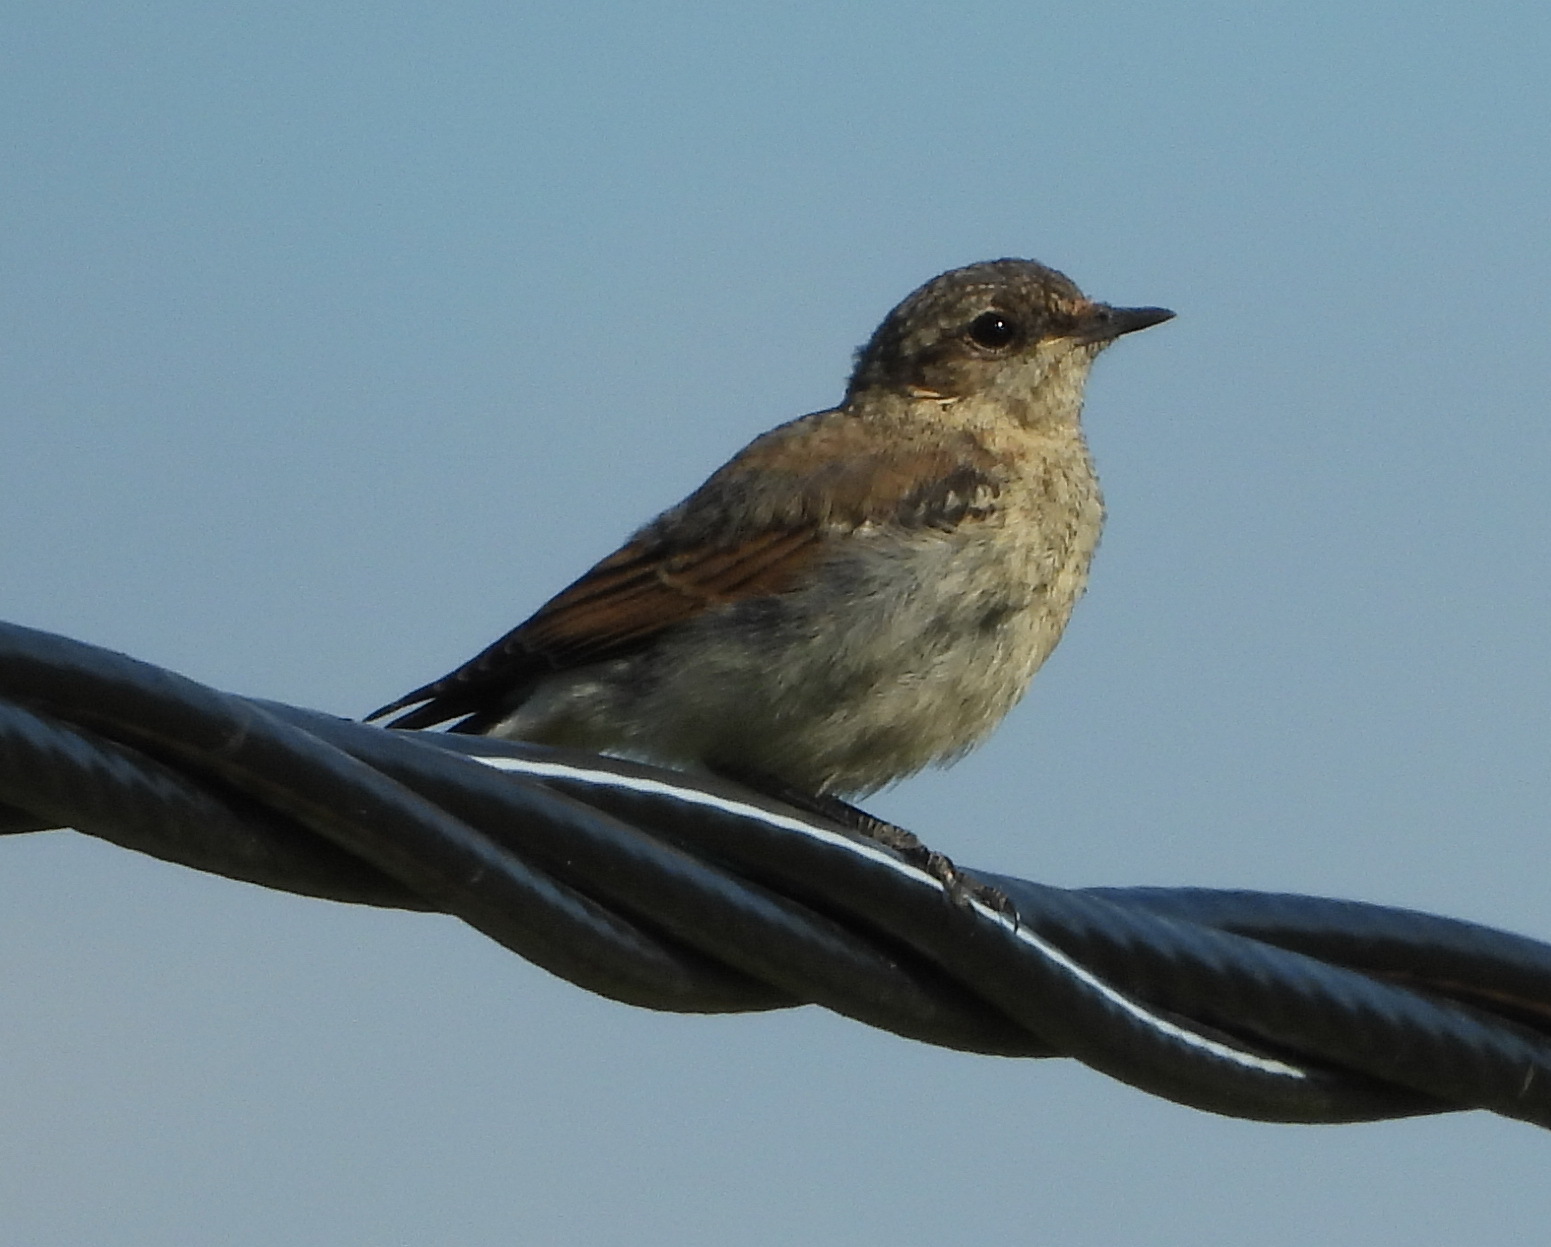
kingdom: Animalia
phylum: Chordata
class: Aves
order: Passeriformes
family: Muscicapidae
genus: Oenanthe
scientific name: Oenanthe oenanthe
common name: Northern wheatear
